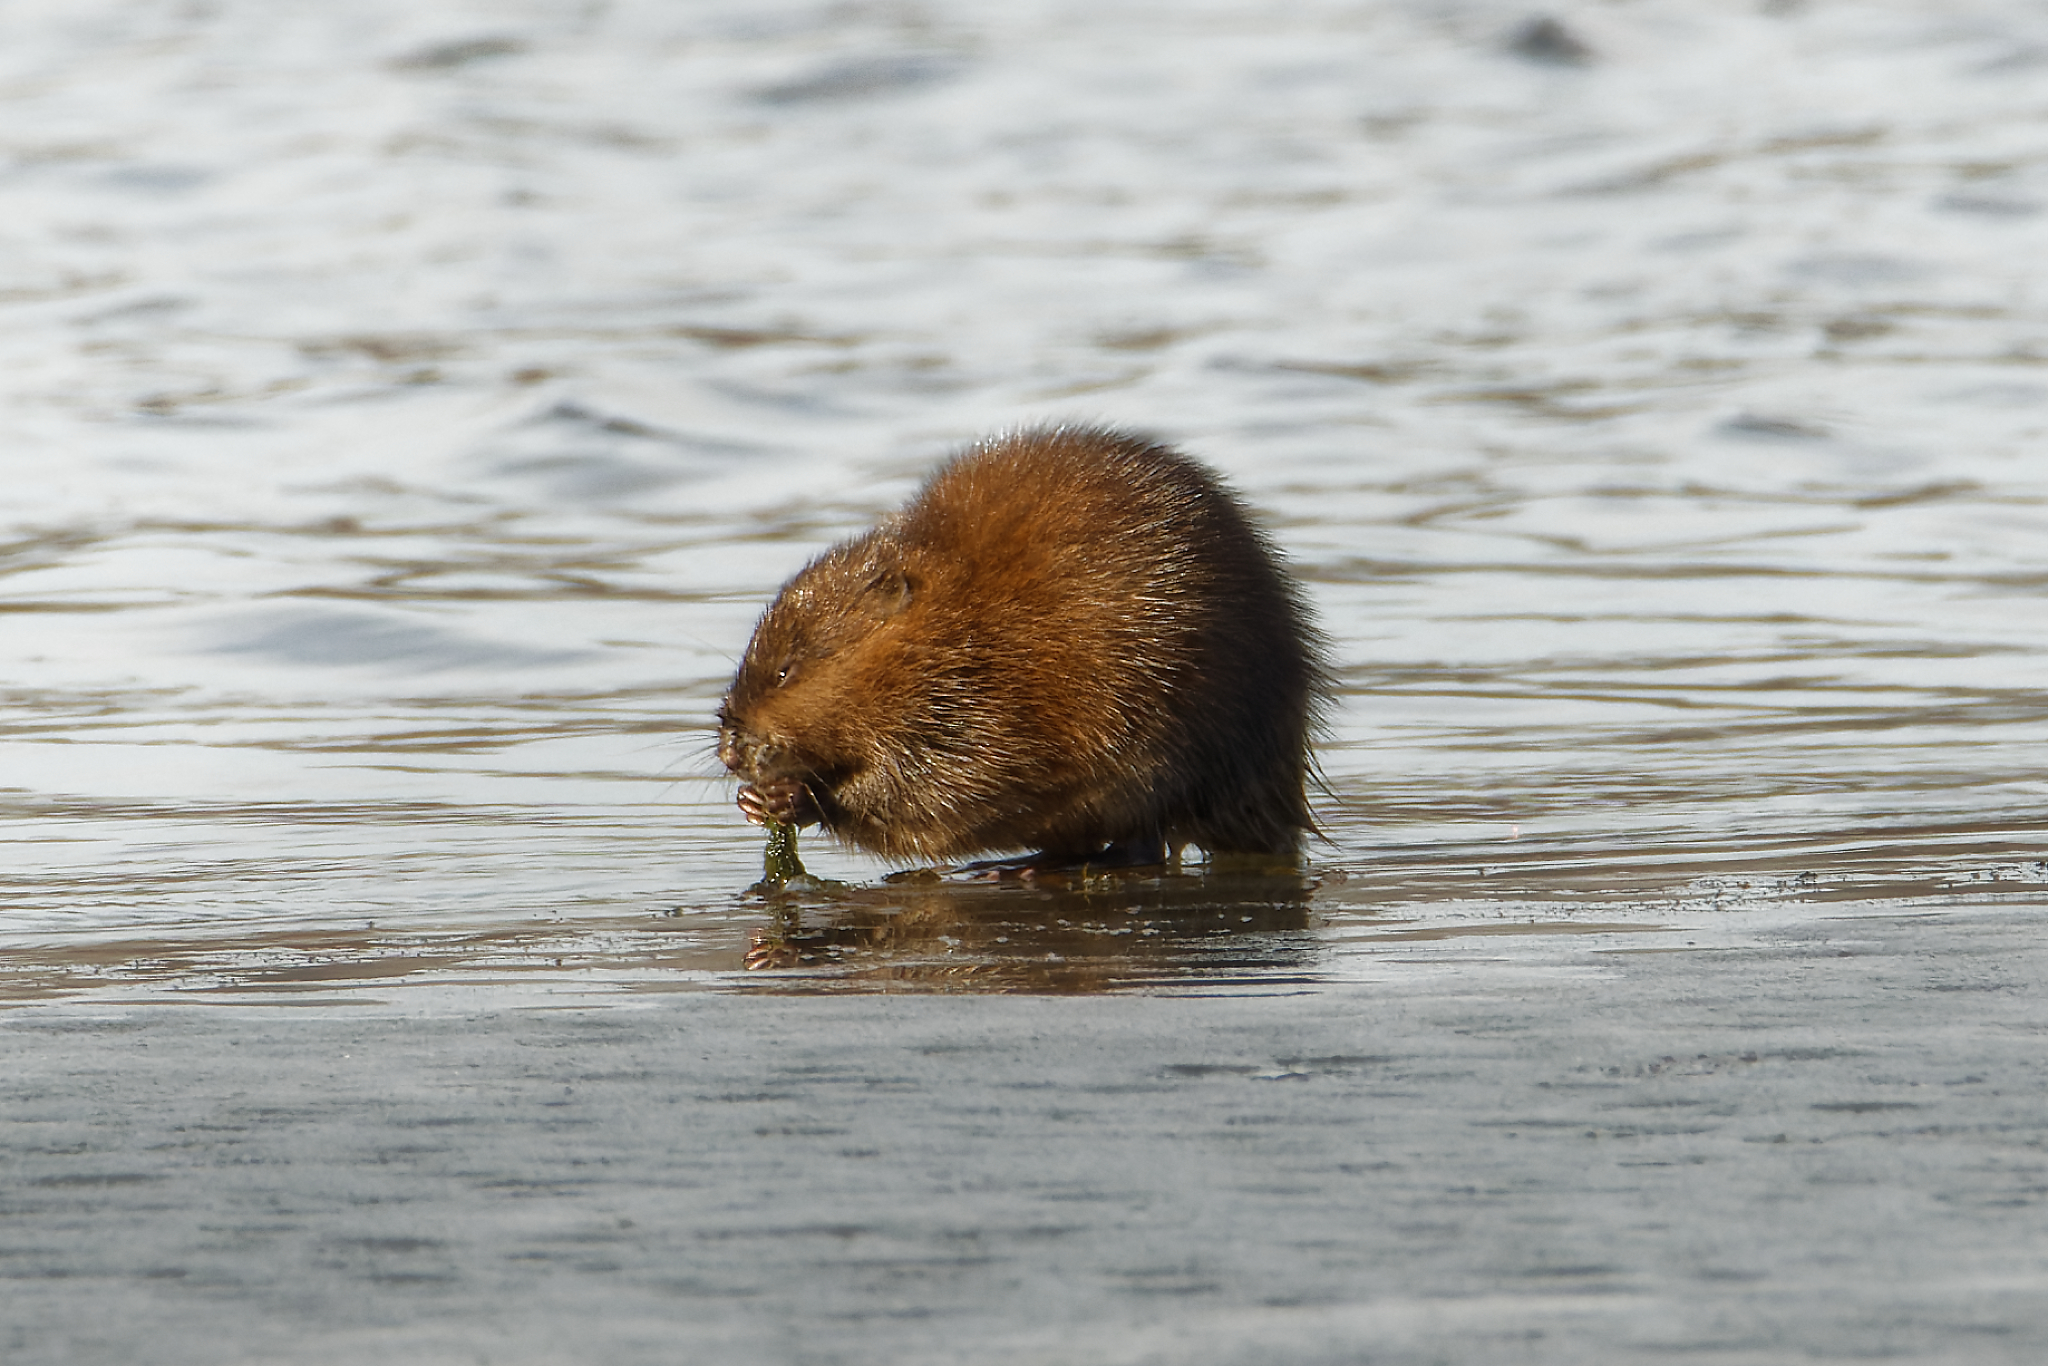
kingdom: Animalia
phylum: Chordata
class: Mammalia
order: Rodentia
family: Cricetidae
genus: Ondatra
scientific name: Ondatra zibethicus
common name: Muskrat
